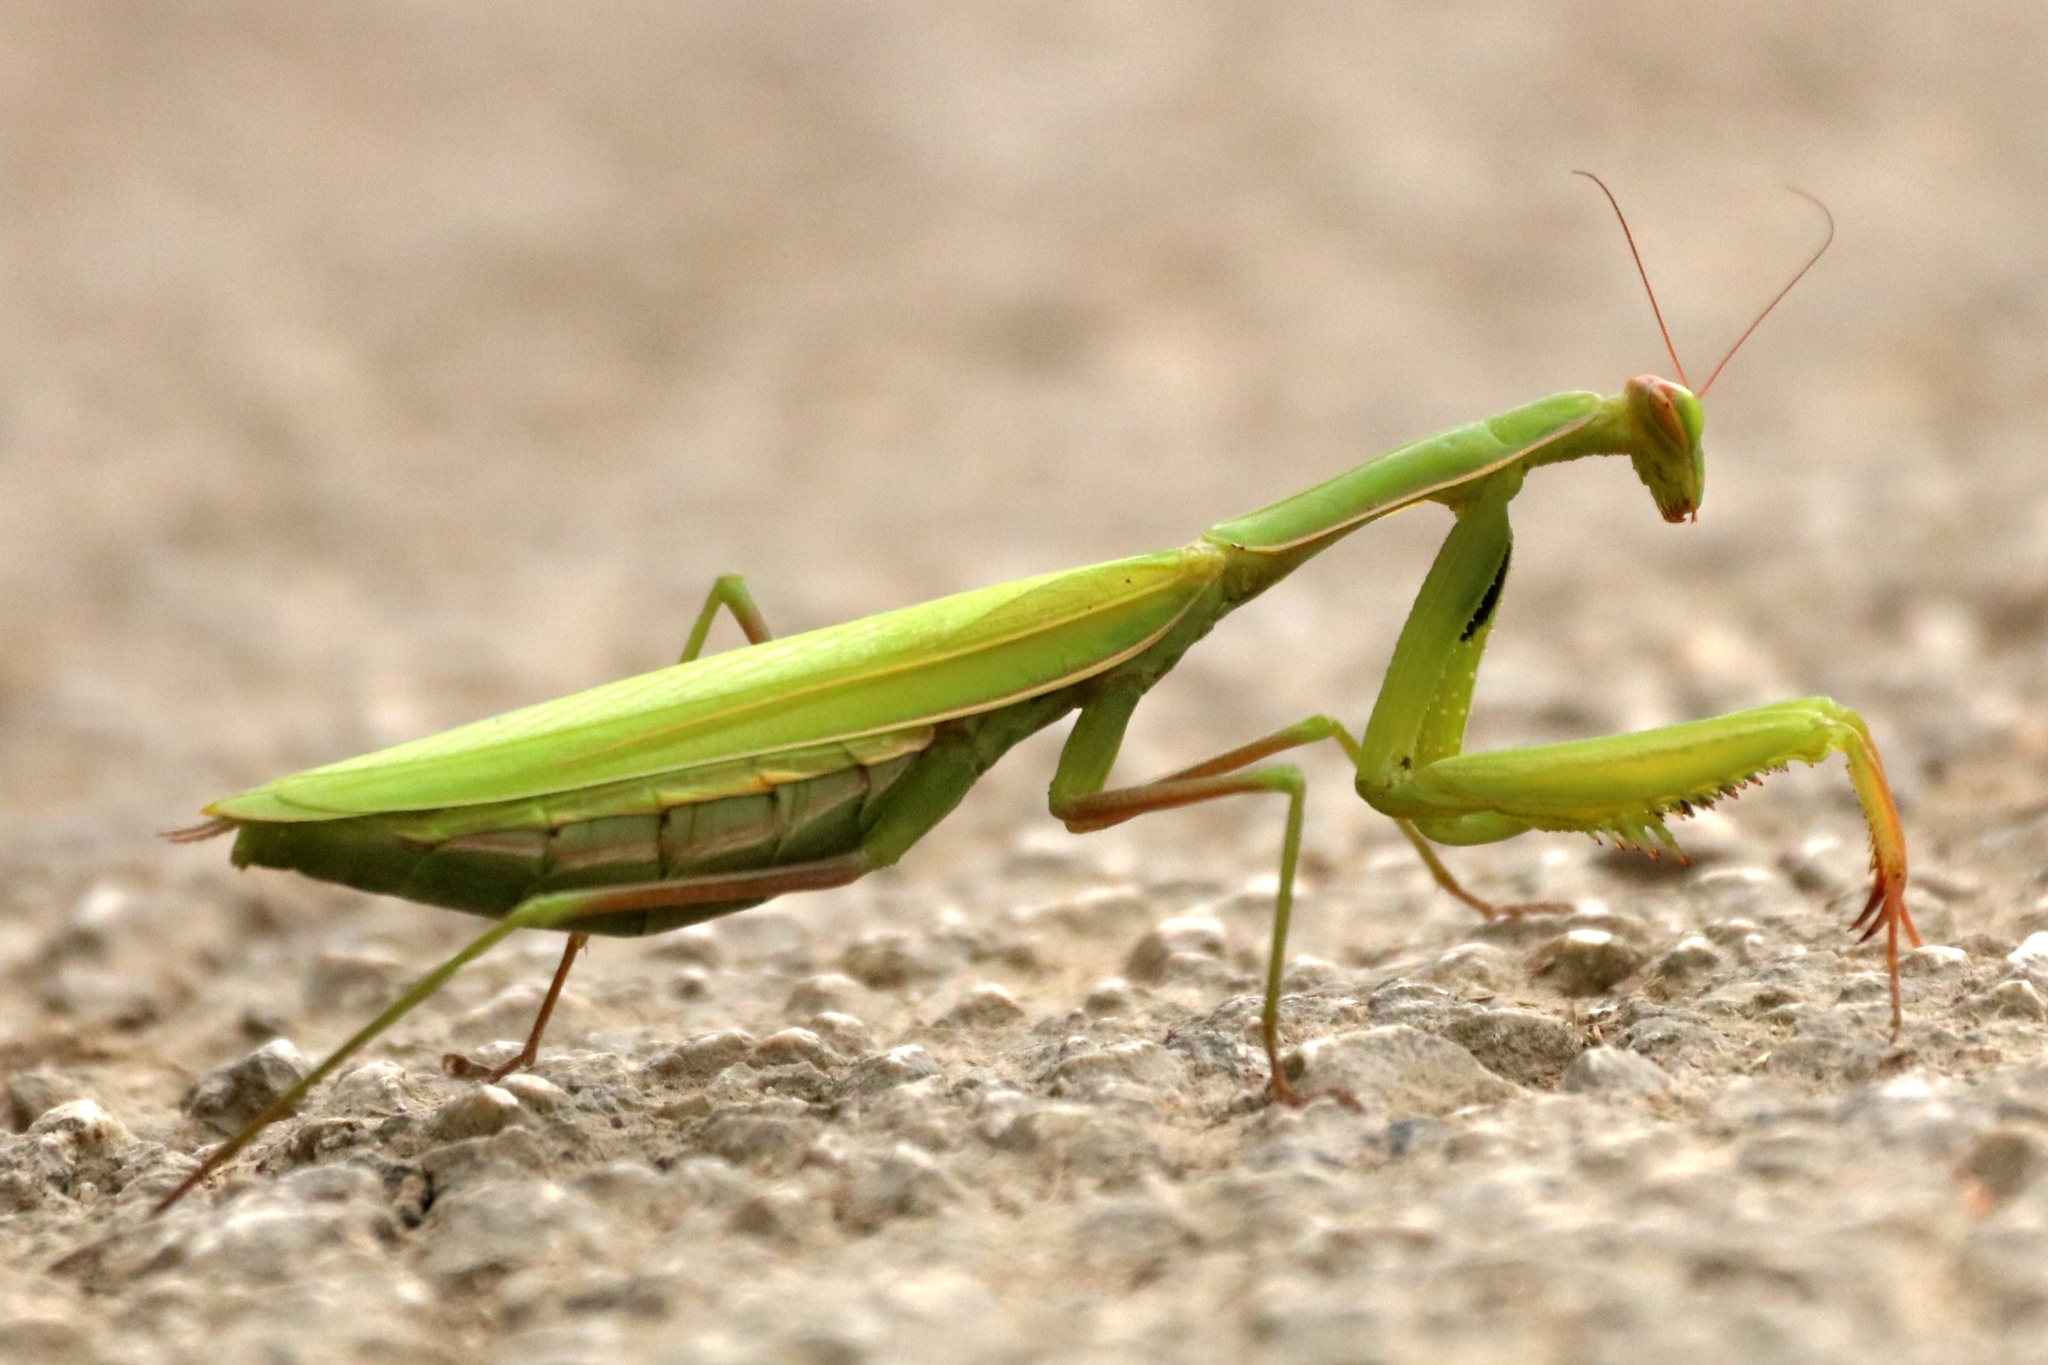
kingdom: Animalia
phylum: Arthropoda
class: Insecta
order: Mantodea
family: Mantidae
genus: Mantis
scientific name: Mantis religiosa
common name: Praying mantis
